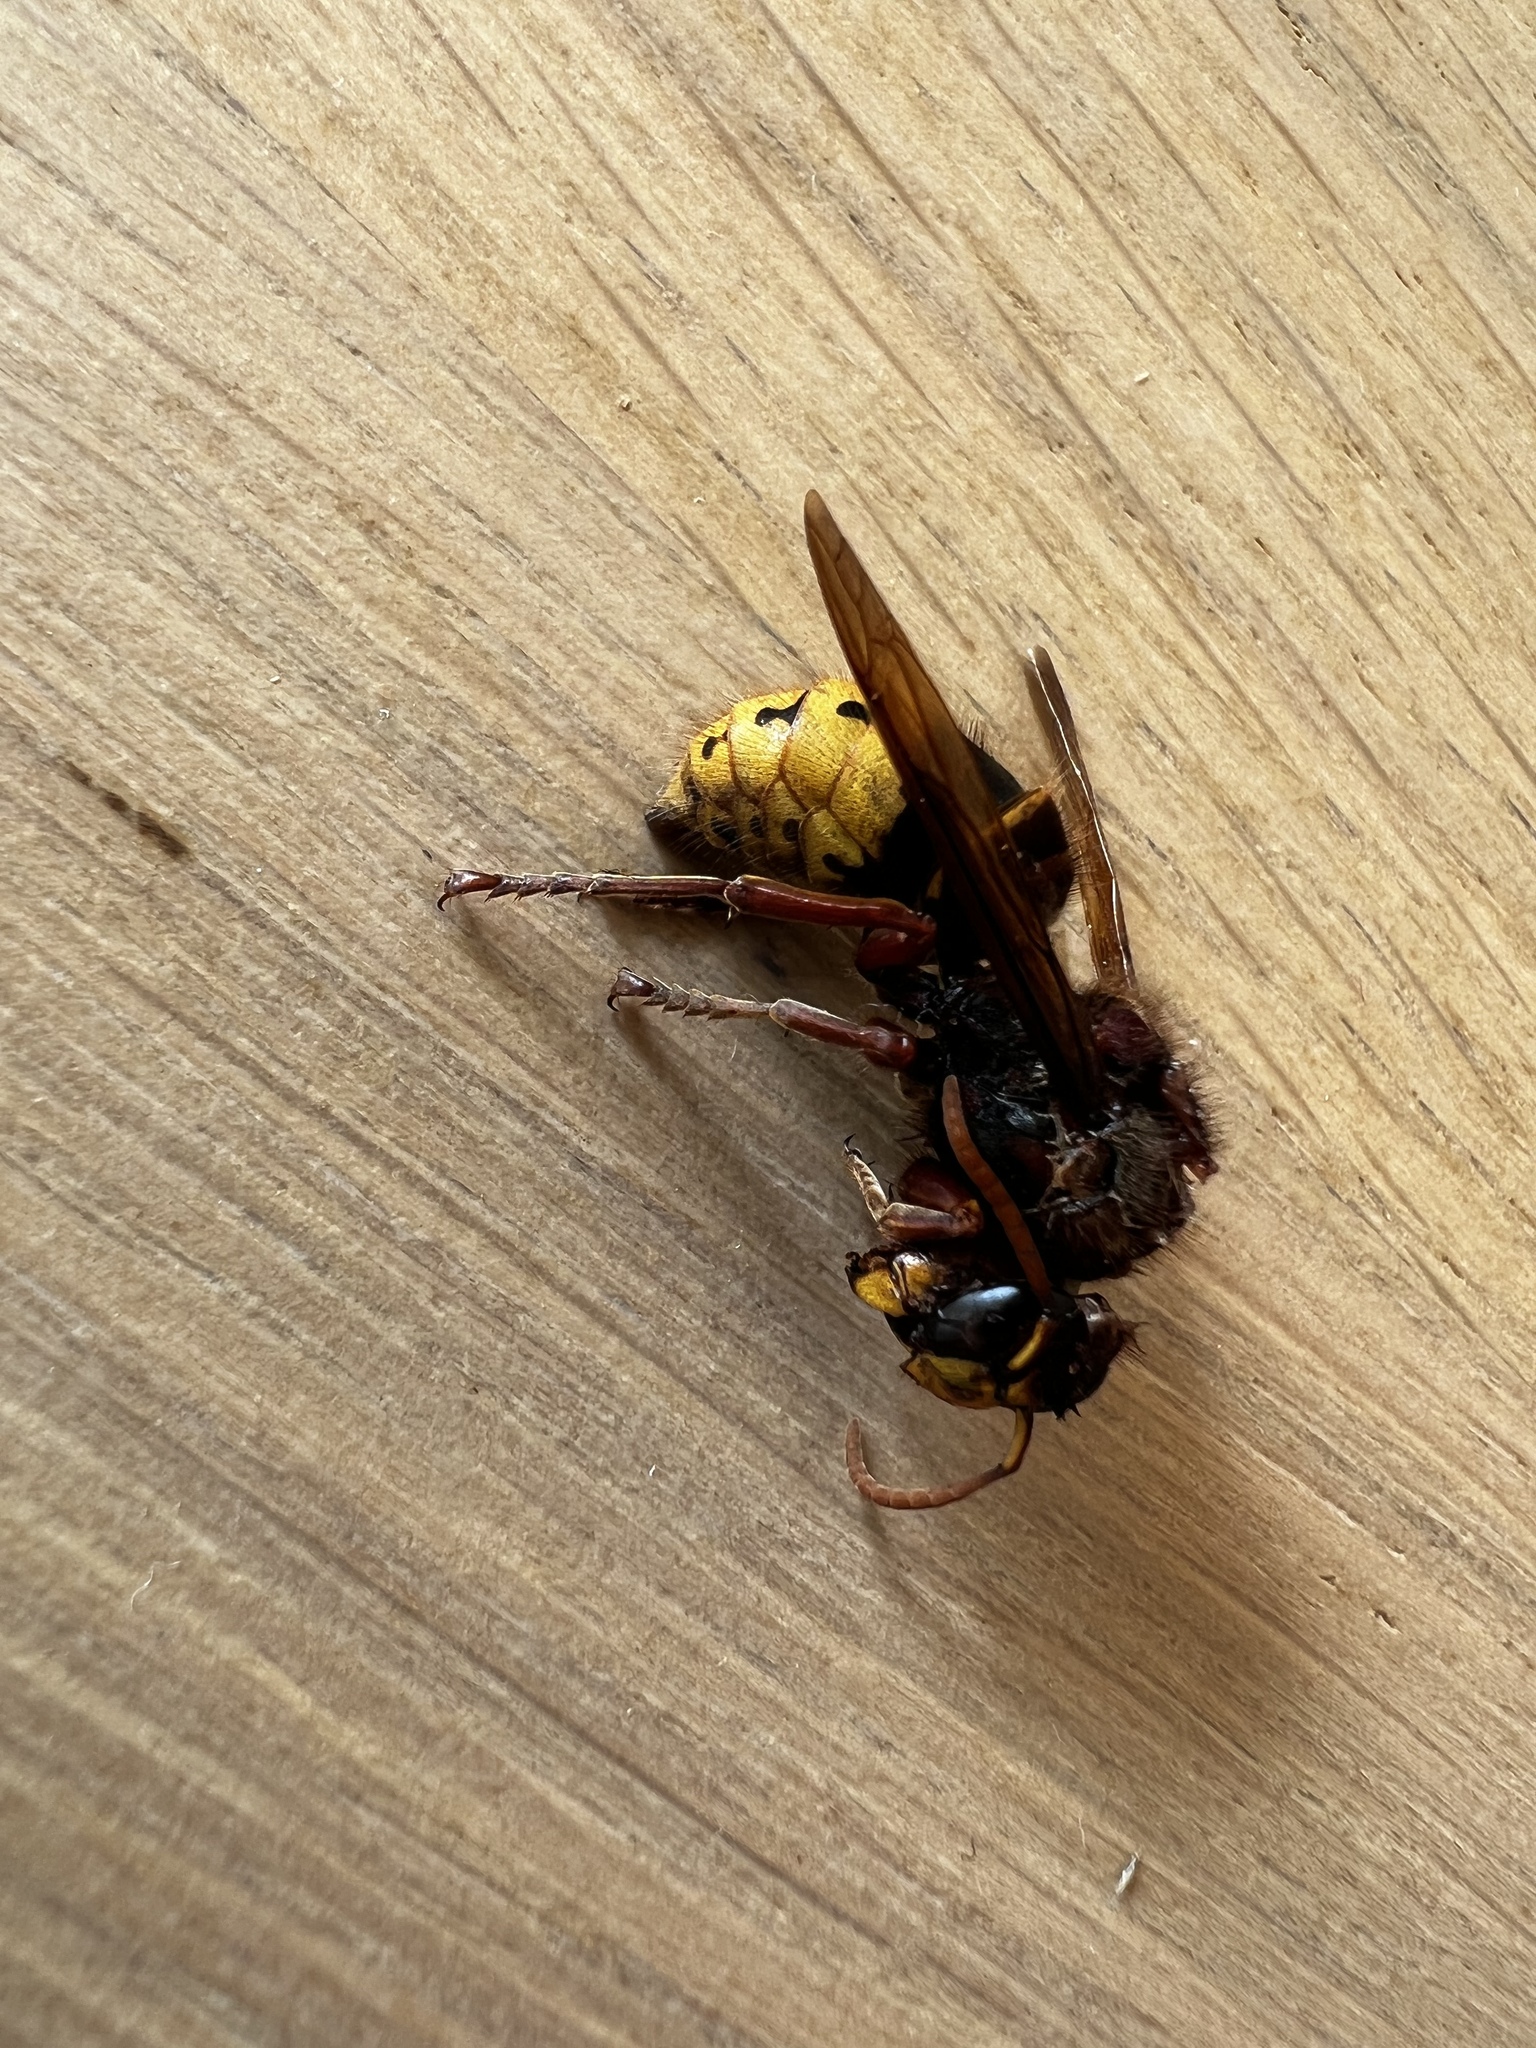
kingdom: Animalia
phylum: Arthropoda
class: Insecta
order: Hymenoptera
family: Vespidae
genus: Vespa
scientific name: Vespa crabro
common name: Hornet
